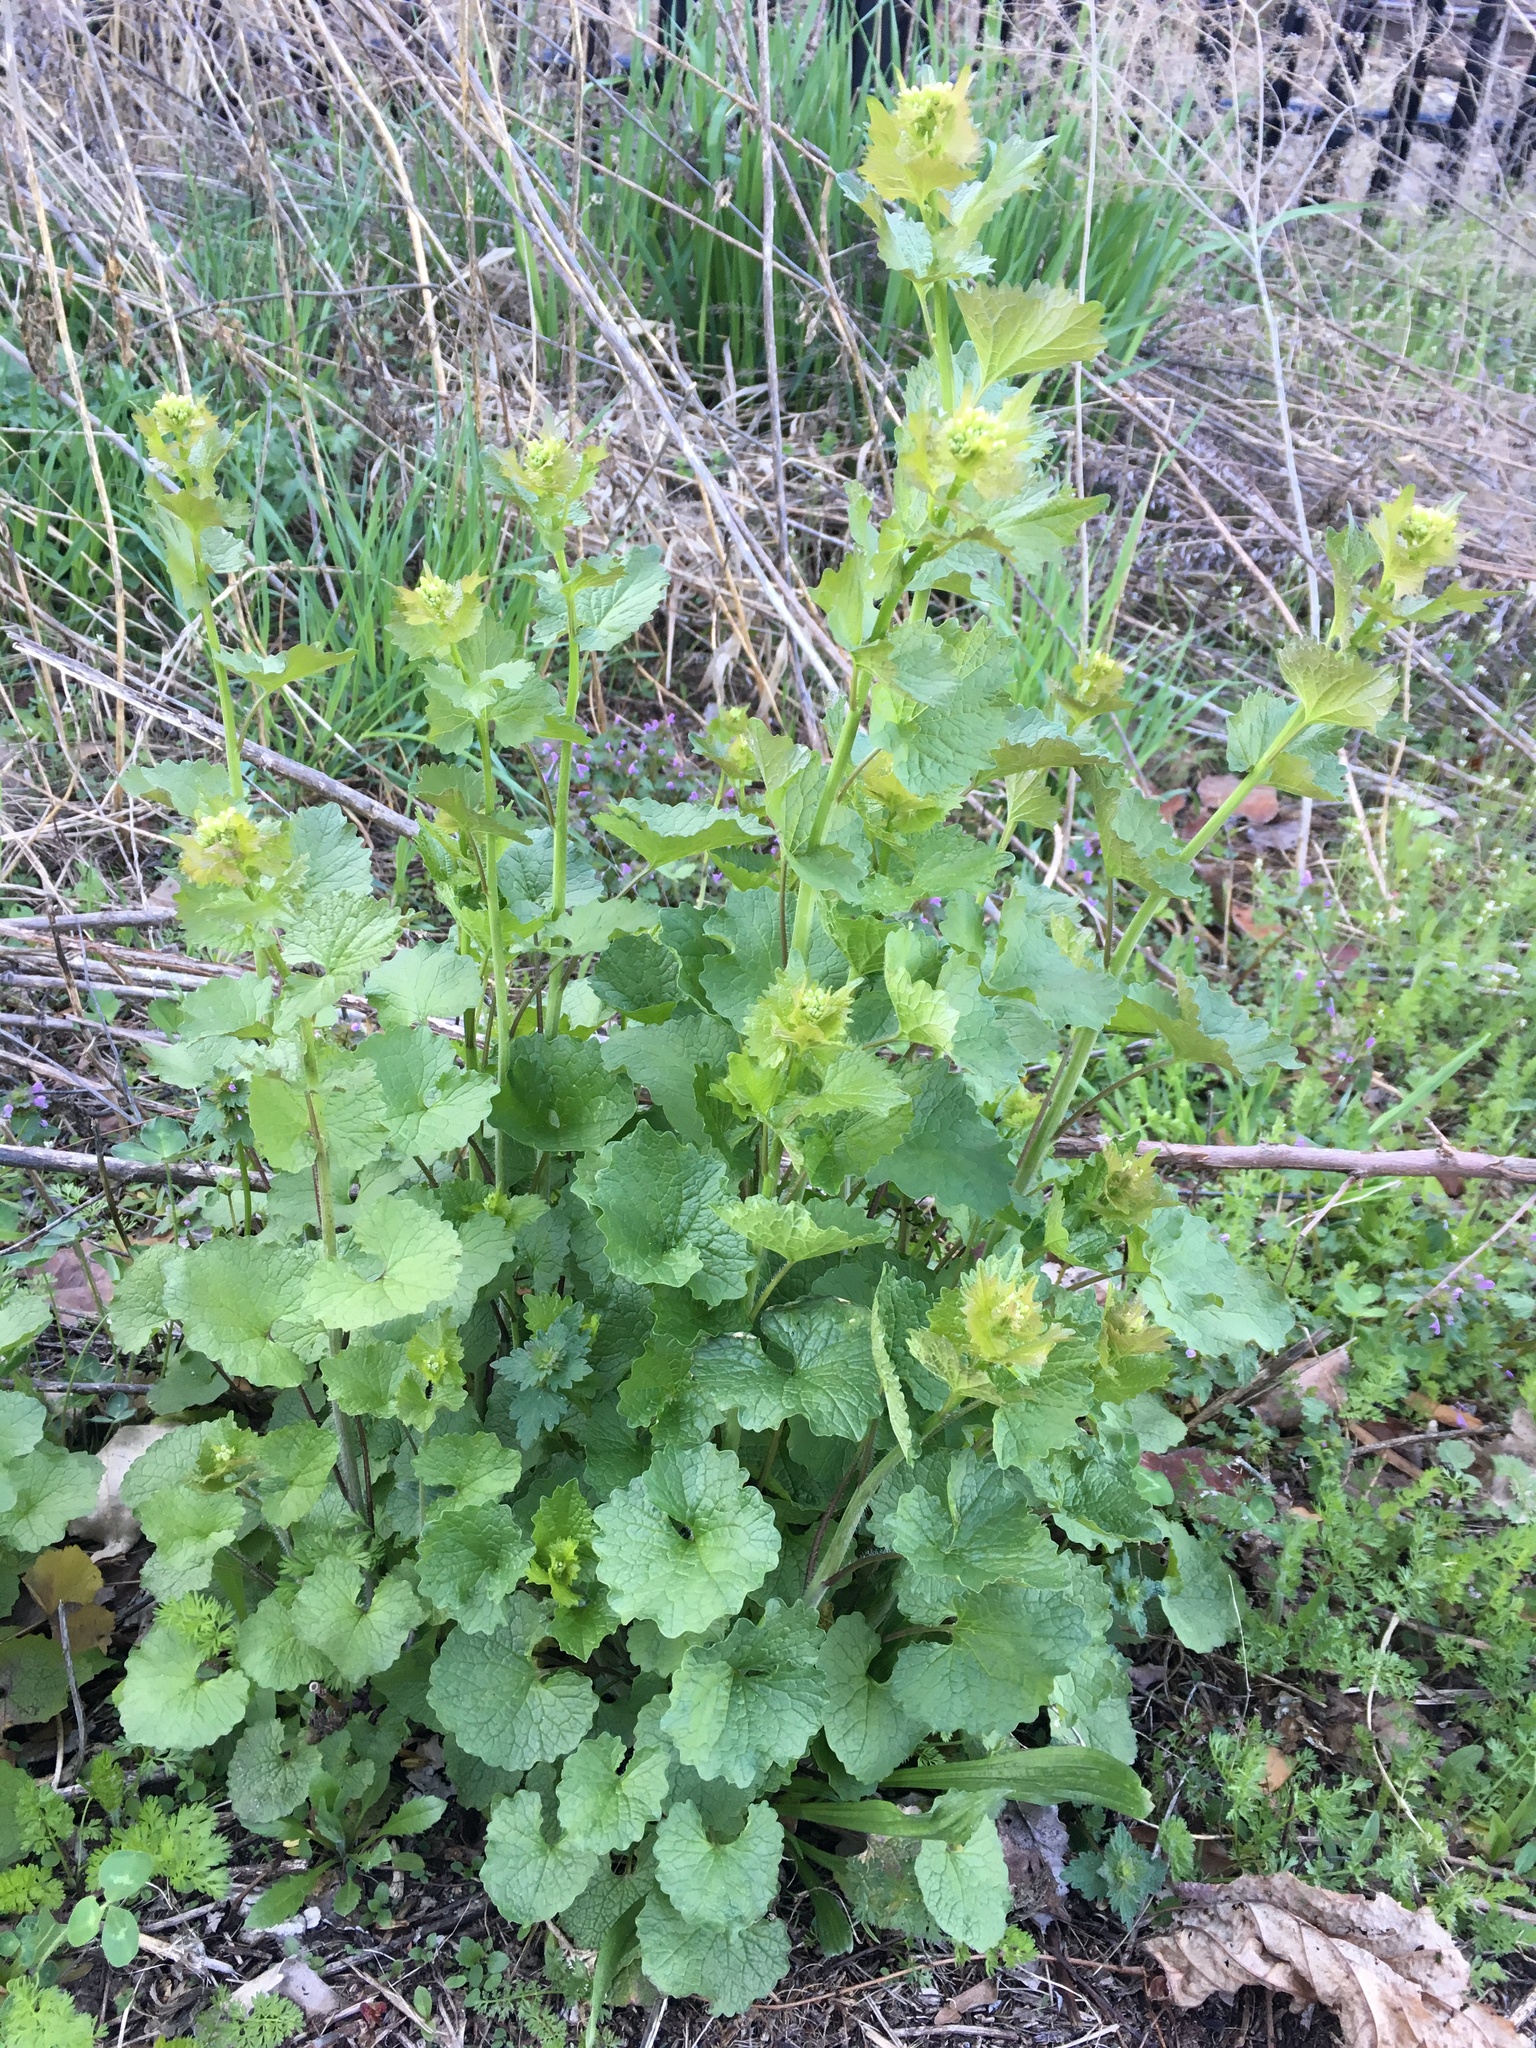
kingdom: Plantae
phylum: Tracheophyta
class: Magnoliopsida
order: Brassicales
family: Brassicaceae
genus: Alliaria
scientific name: Alliaria petiolata
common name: Garlic mustard
